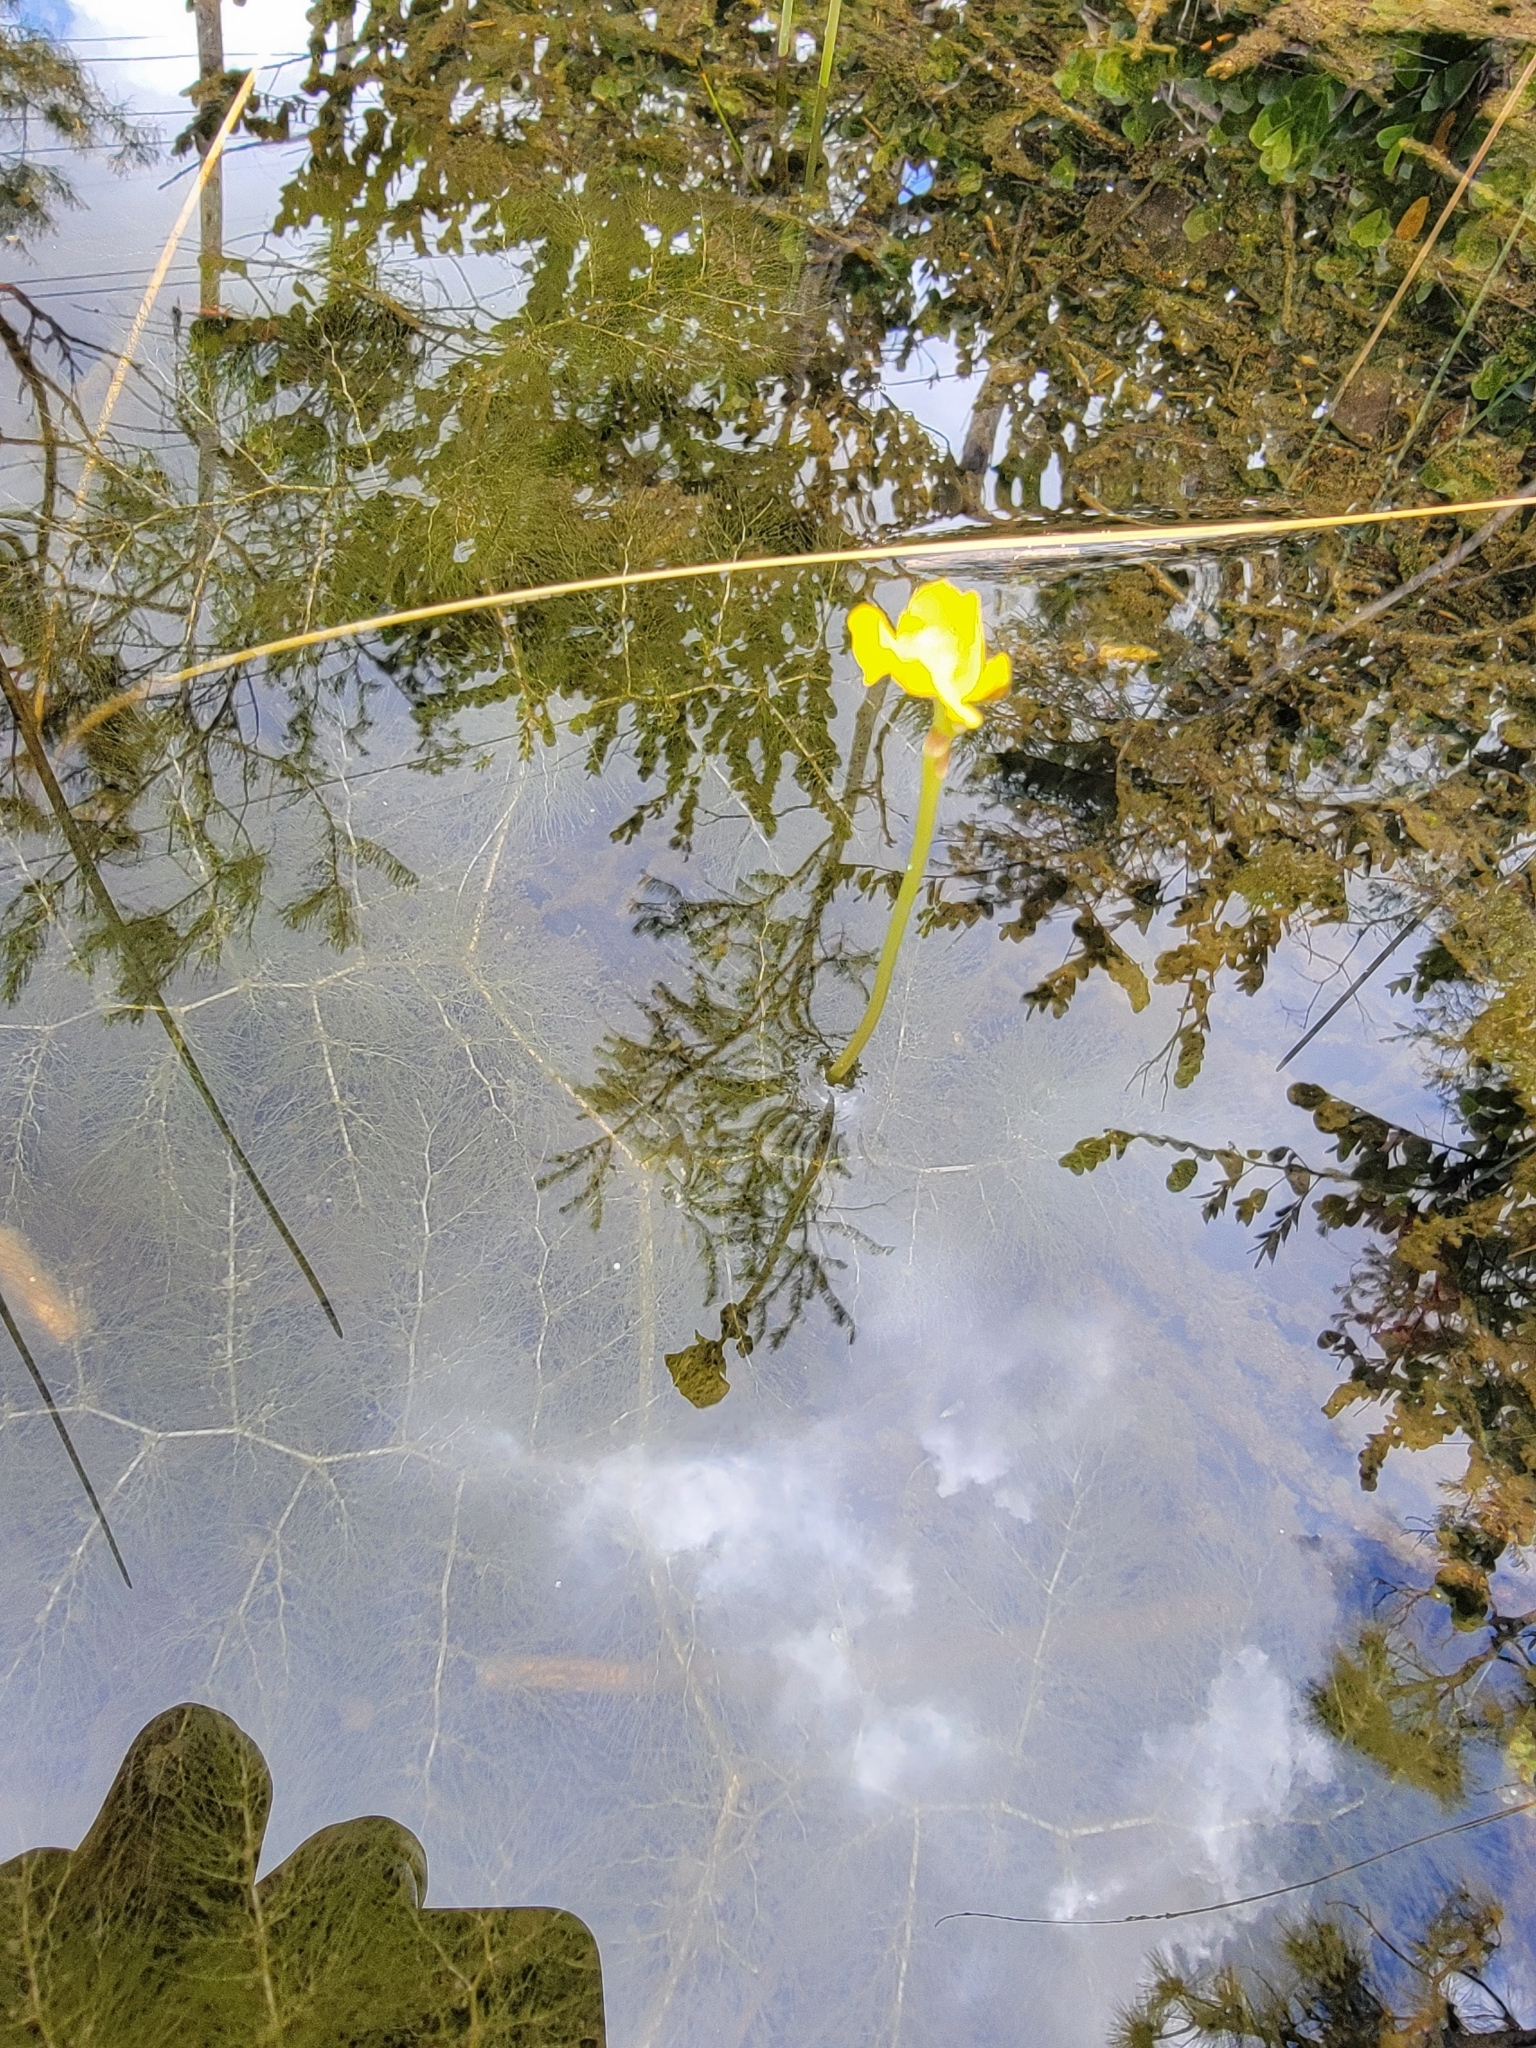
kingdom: Plantae
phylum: Tracheophyta
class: Magnoliopsida
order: Lamiales
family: Lentibulariaceae
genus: Utricularia
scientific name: Utricularia foliosa
